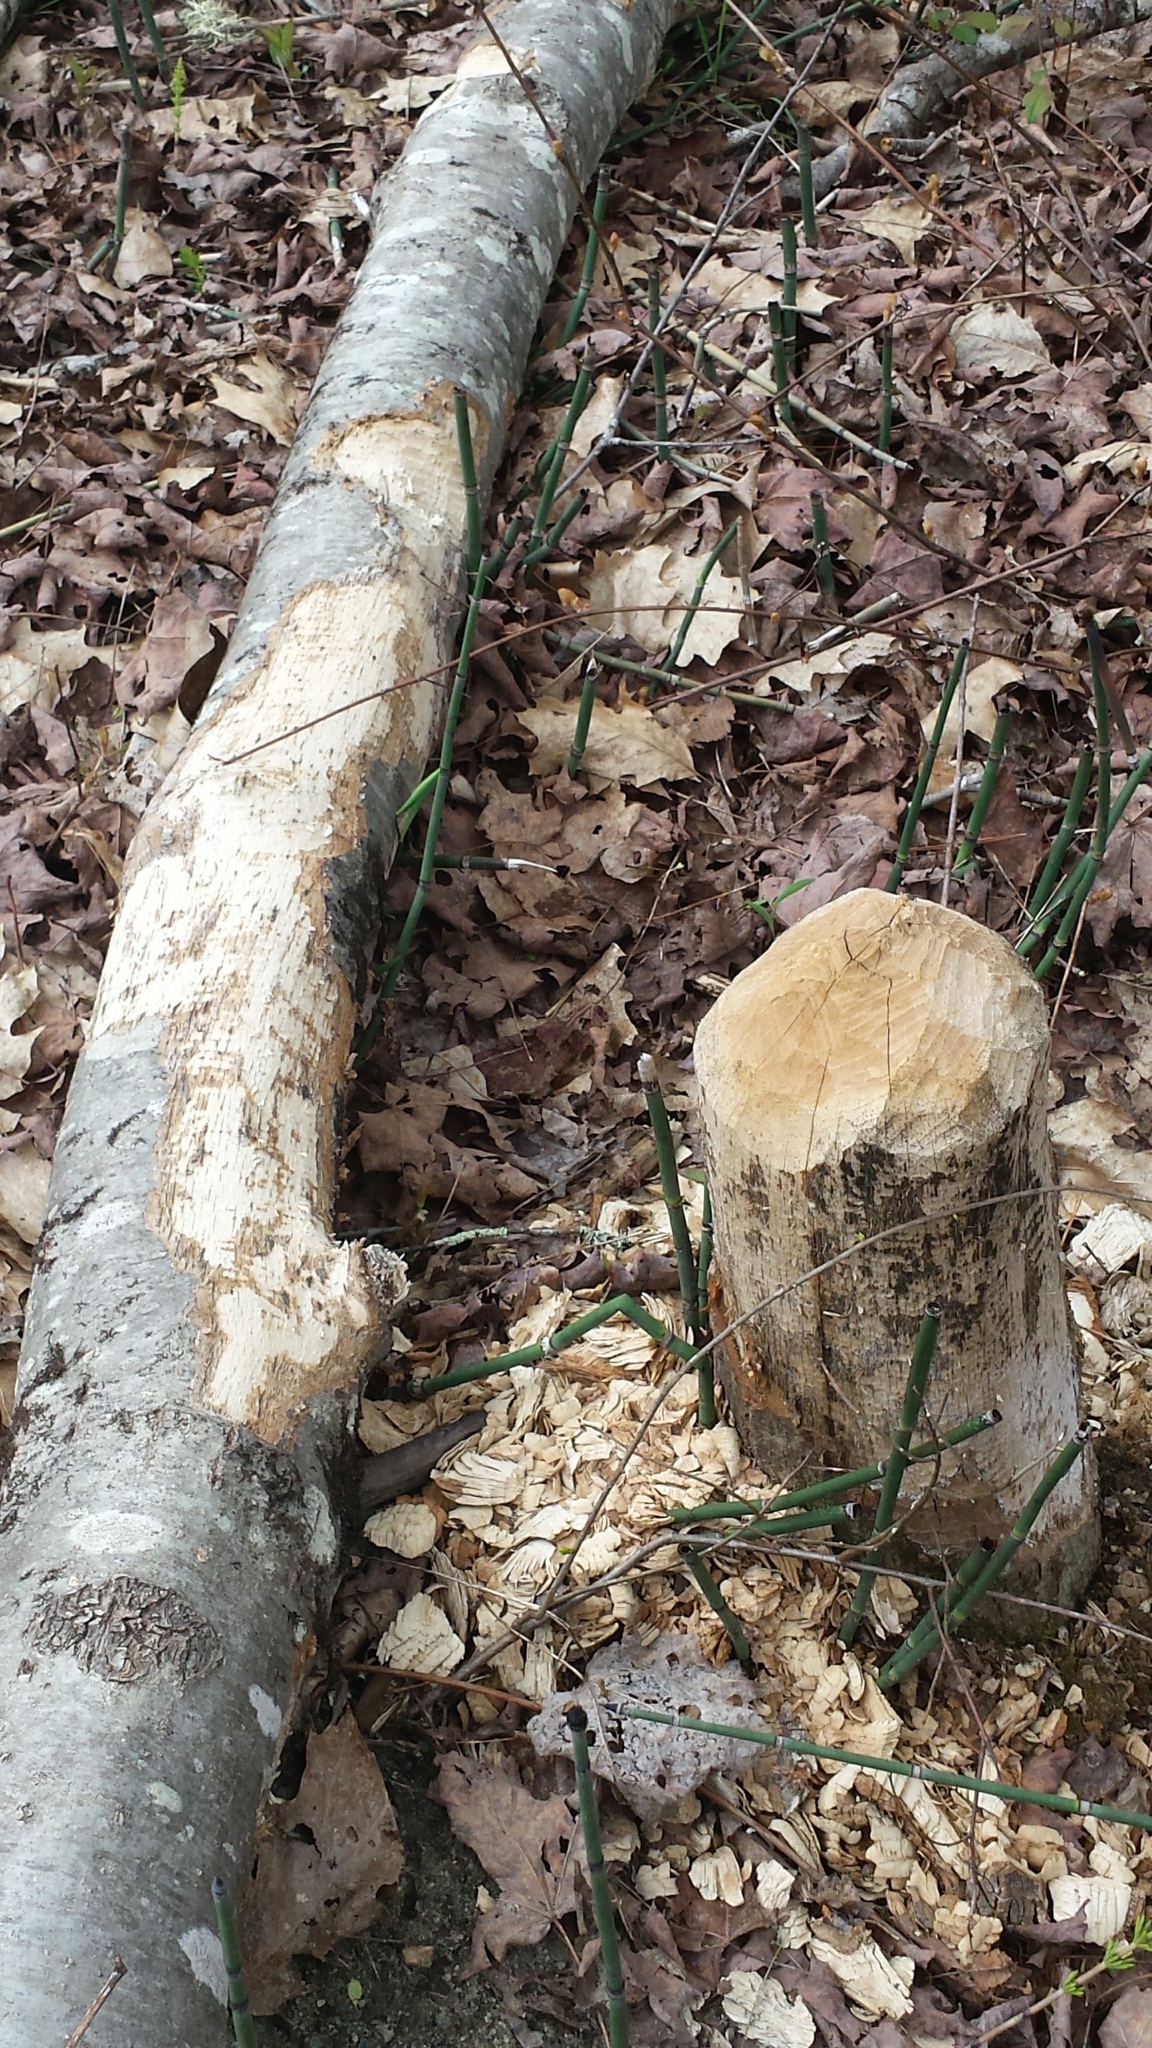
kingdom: Animalia
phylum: Chordata
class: Mammalia
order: Rodentia
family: Castoridae
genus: Castor
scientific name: Castor canadensis
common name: American beaver
